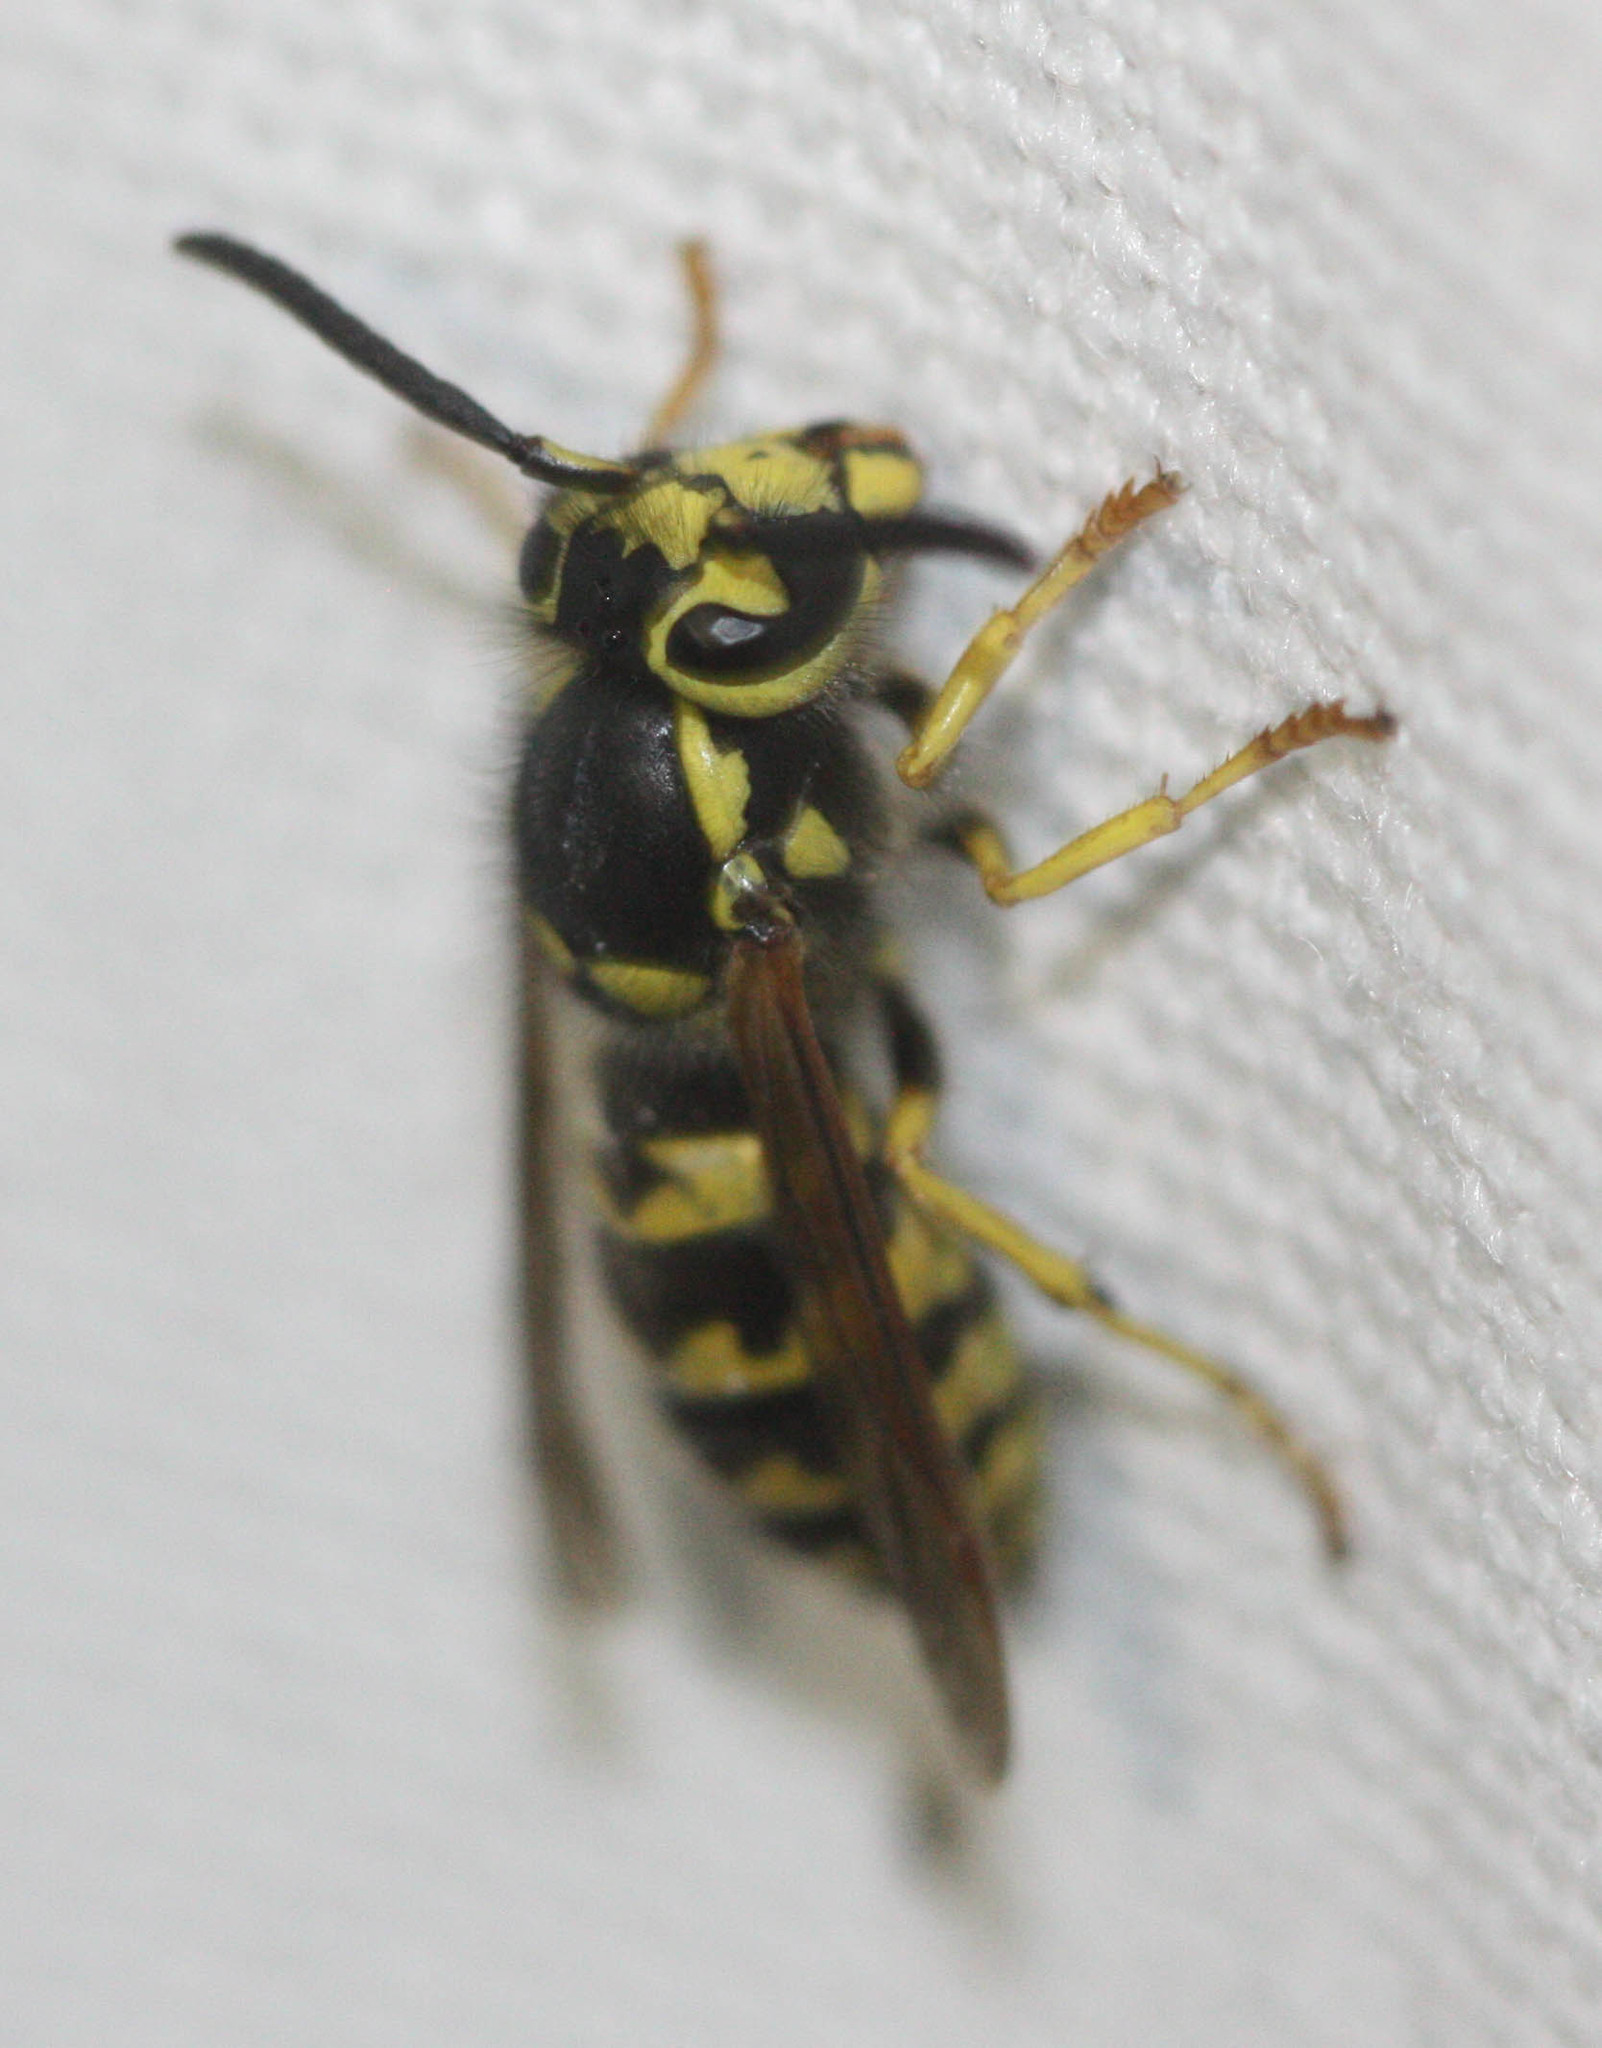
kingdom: Animalia
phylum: Arthropoda
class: Insecta
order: Hymenoptera
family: Vespidae
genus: Vespula
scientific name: Vespula pensylvanica
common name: Western yellowjacket
